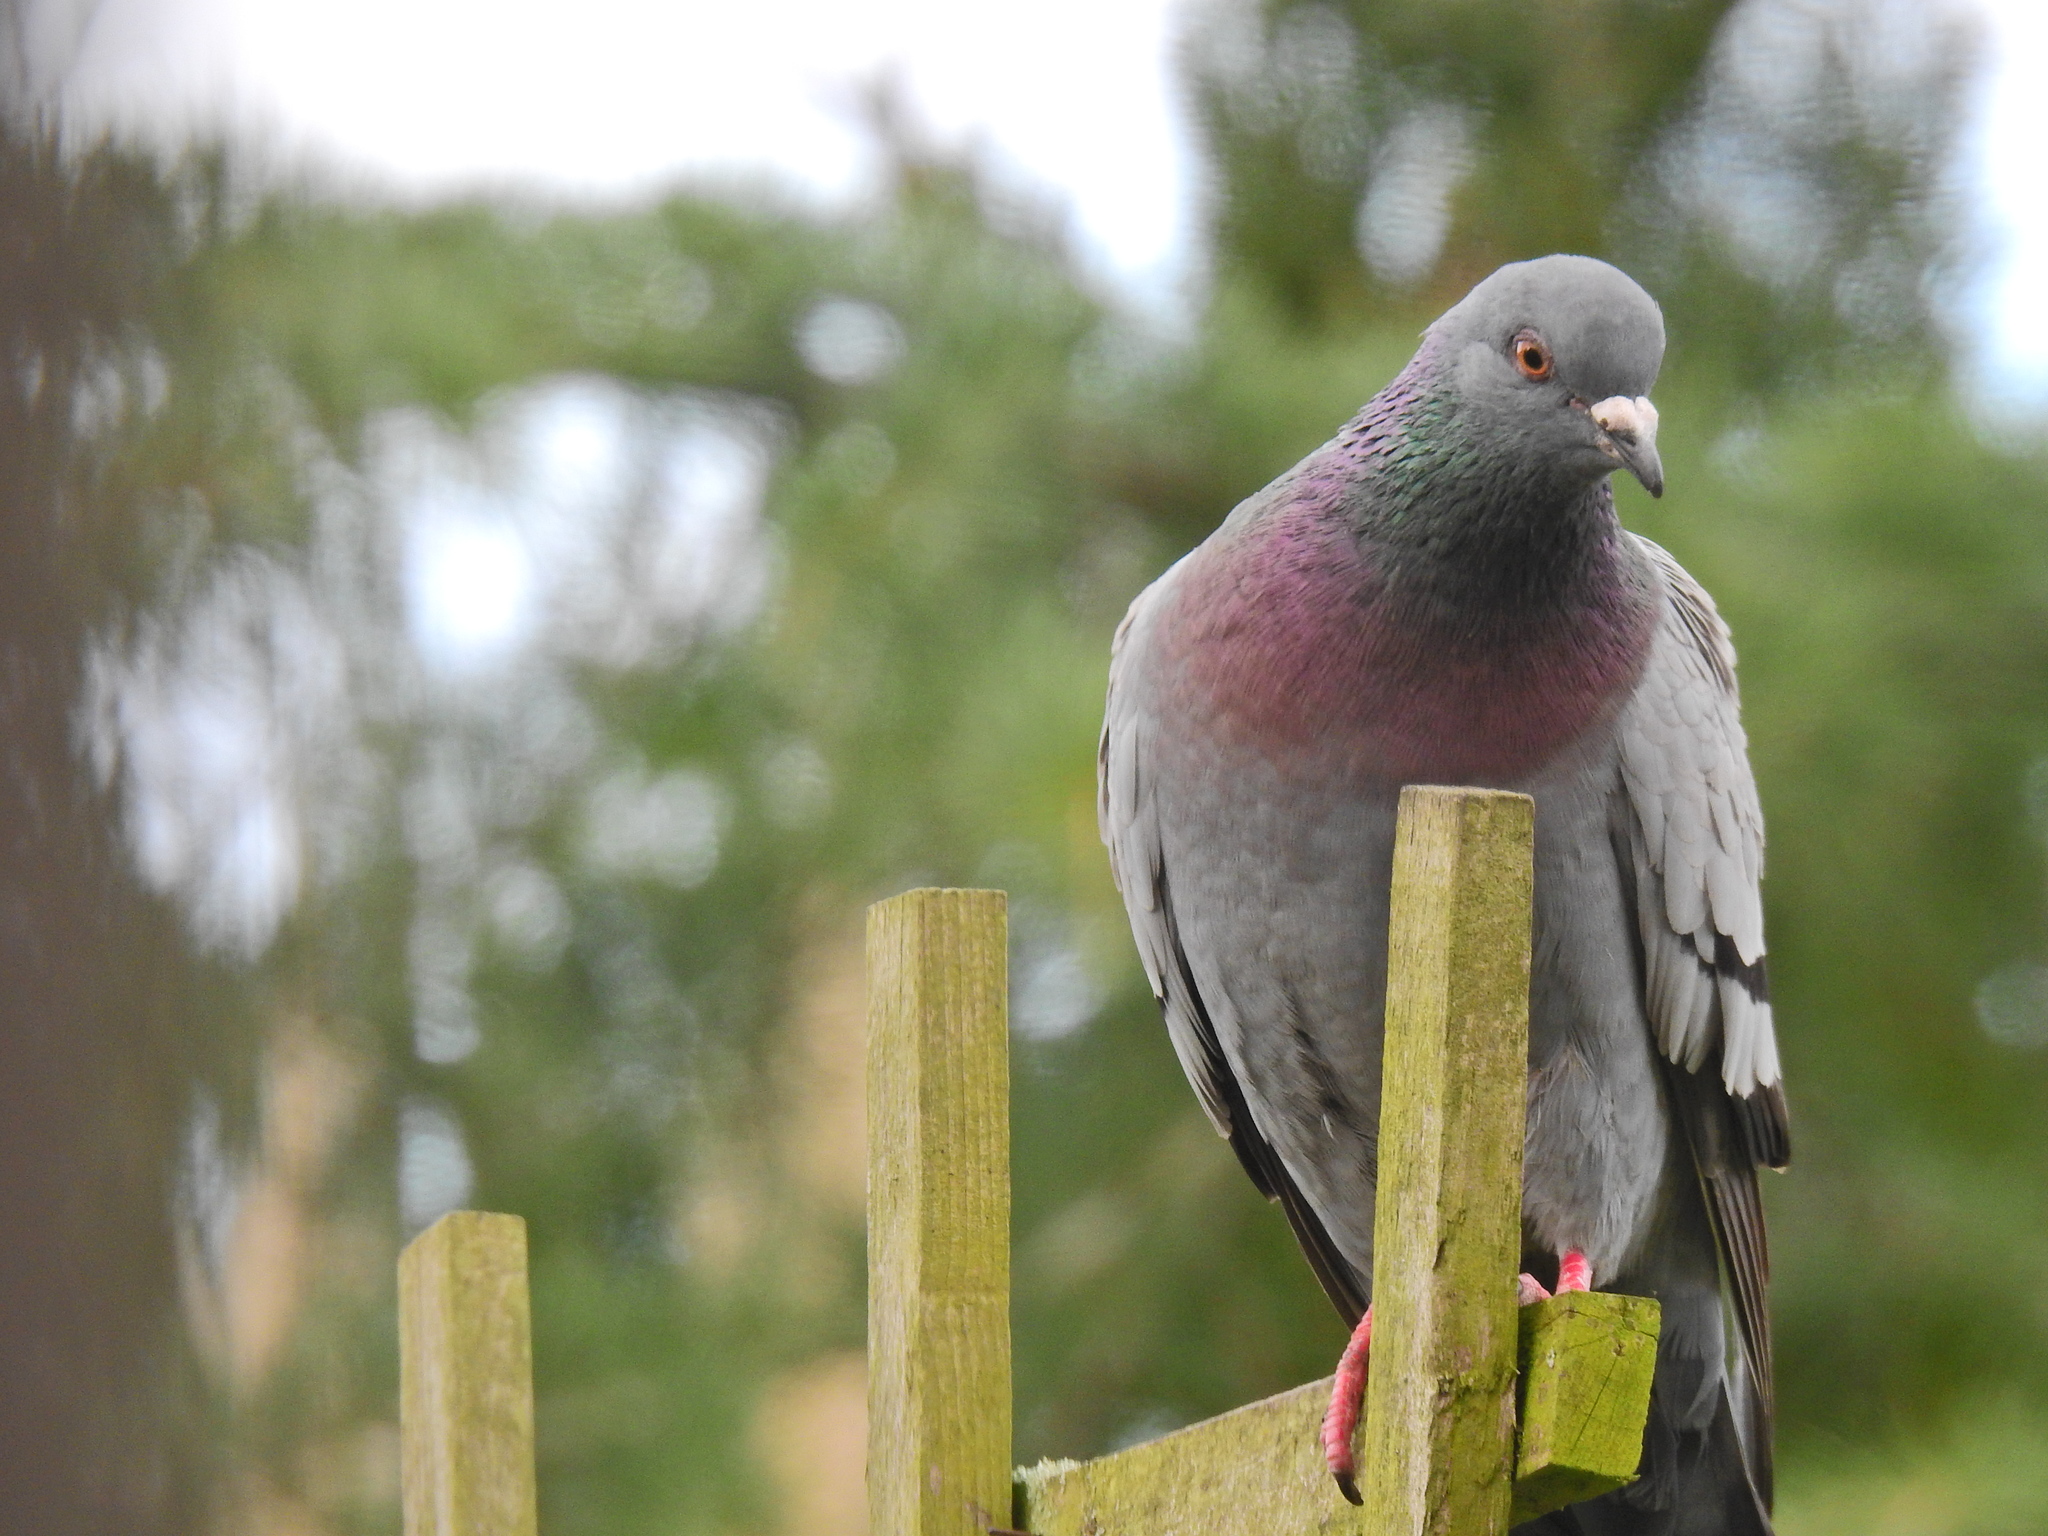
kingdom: Animalia
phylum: Chordata
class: Aves
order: Columbiformes
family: Columbidae
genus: Columba
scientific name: Columba livia
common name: Rock pigeon
